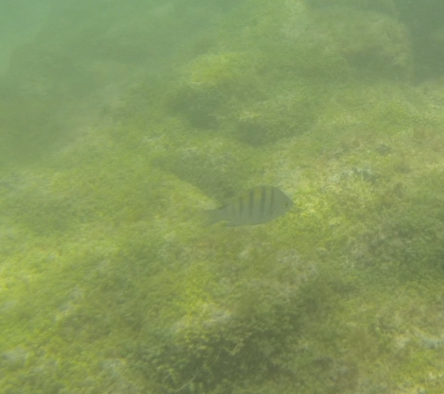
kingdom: Animalia
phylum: Chordata
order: Perciformes
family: Pomacentridae
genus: Abudefduf
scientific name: Abudefduf troschelii
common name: Panamic sergeant major
